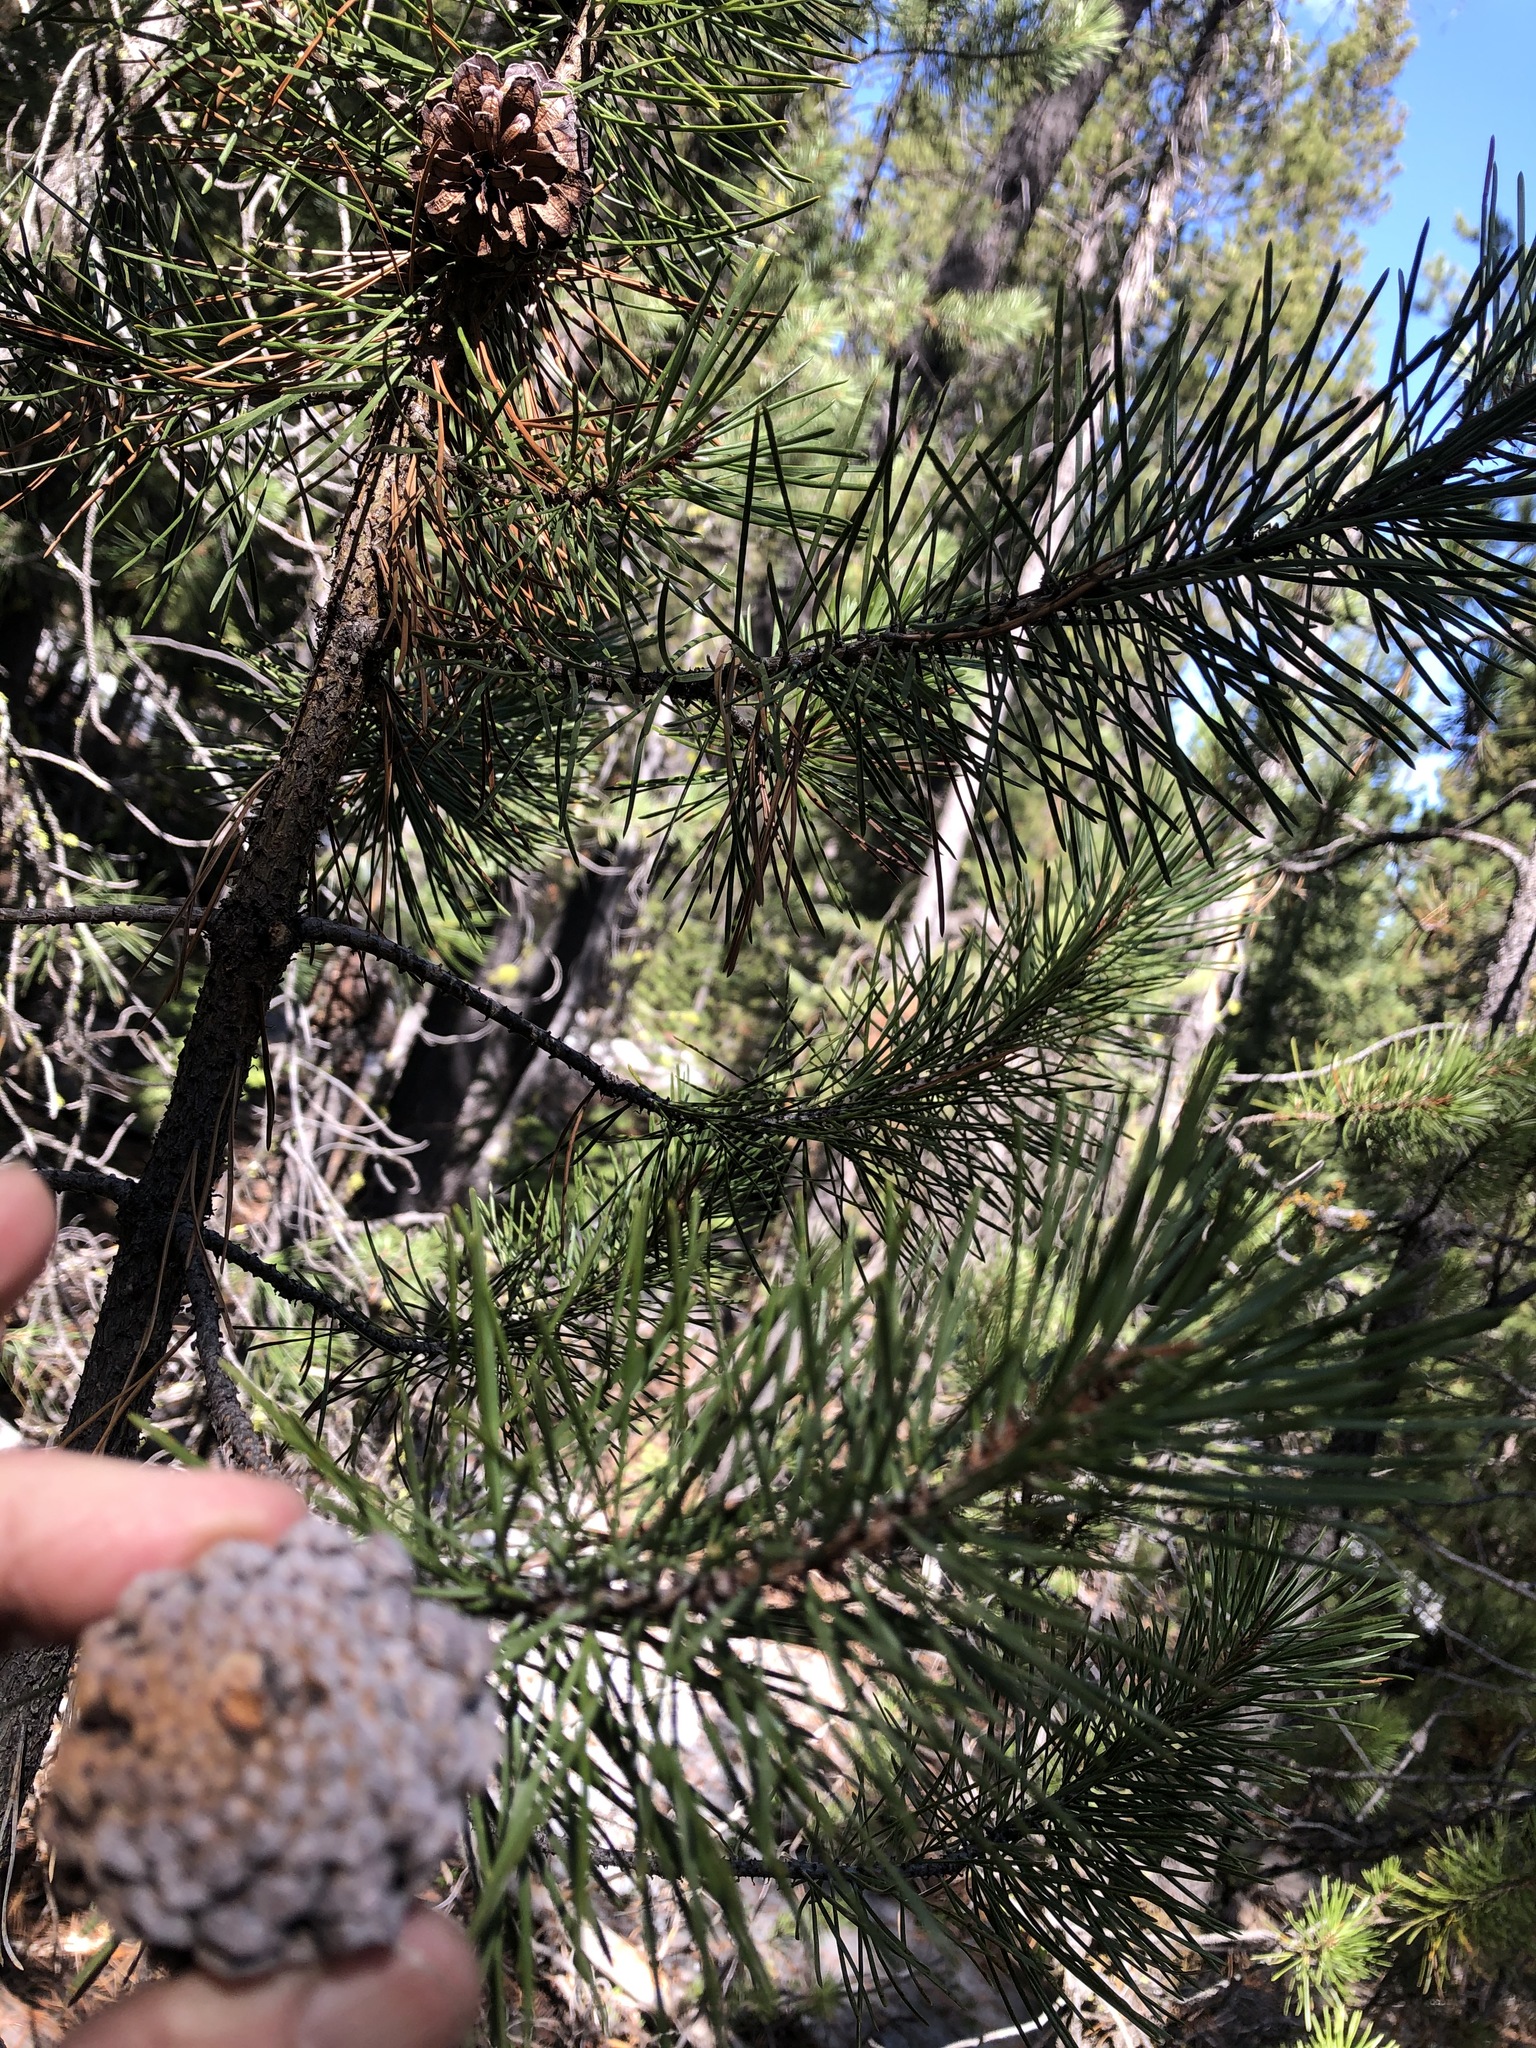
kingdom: Plantae
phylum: Tracheophyta
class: Pinopsida
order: Pinales
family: Pinaceae
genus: Pinus
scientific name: Pinus contorta
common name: Lodgepole pine
